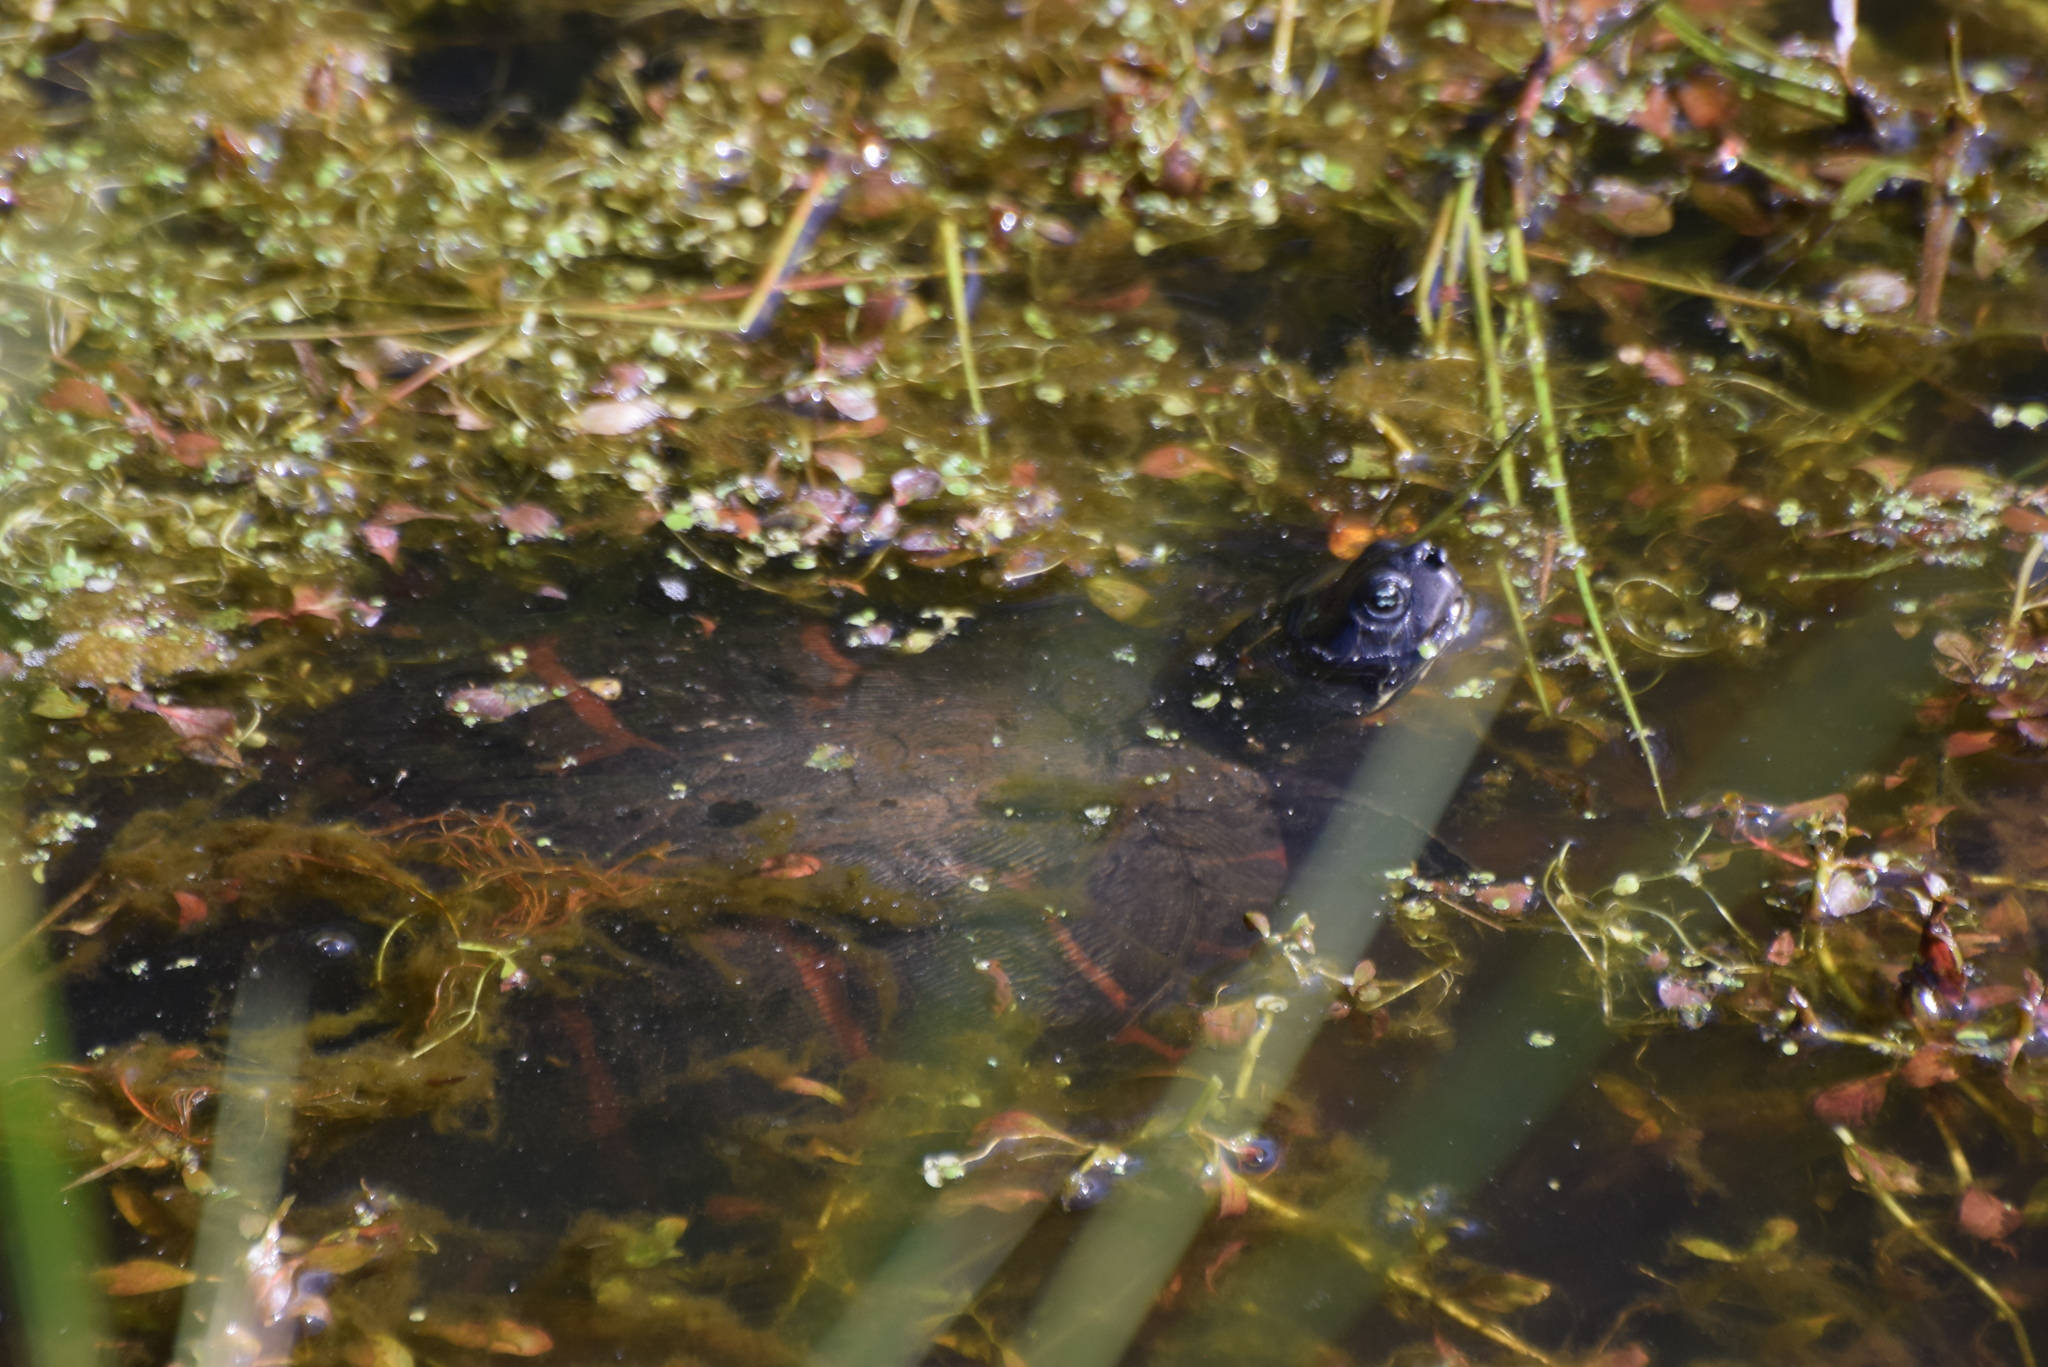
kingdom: Animalia
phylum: Chordata
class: Testudines
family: Emydidae
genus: Pseudemys
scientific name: Pseudemys rubriventris
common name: American red-bellied turtle
